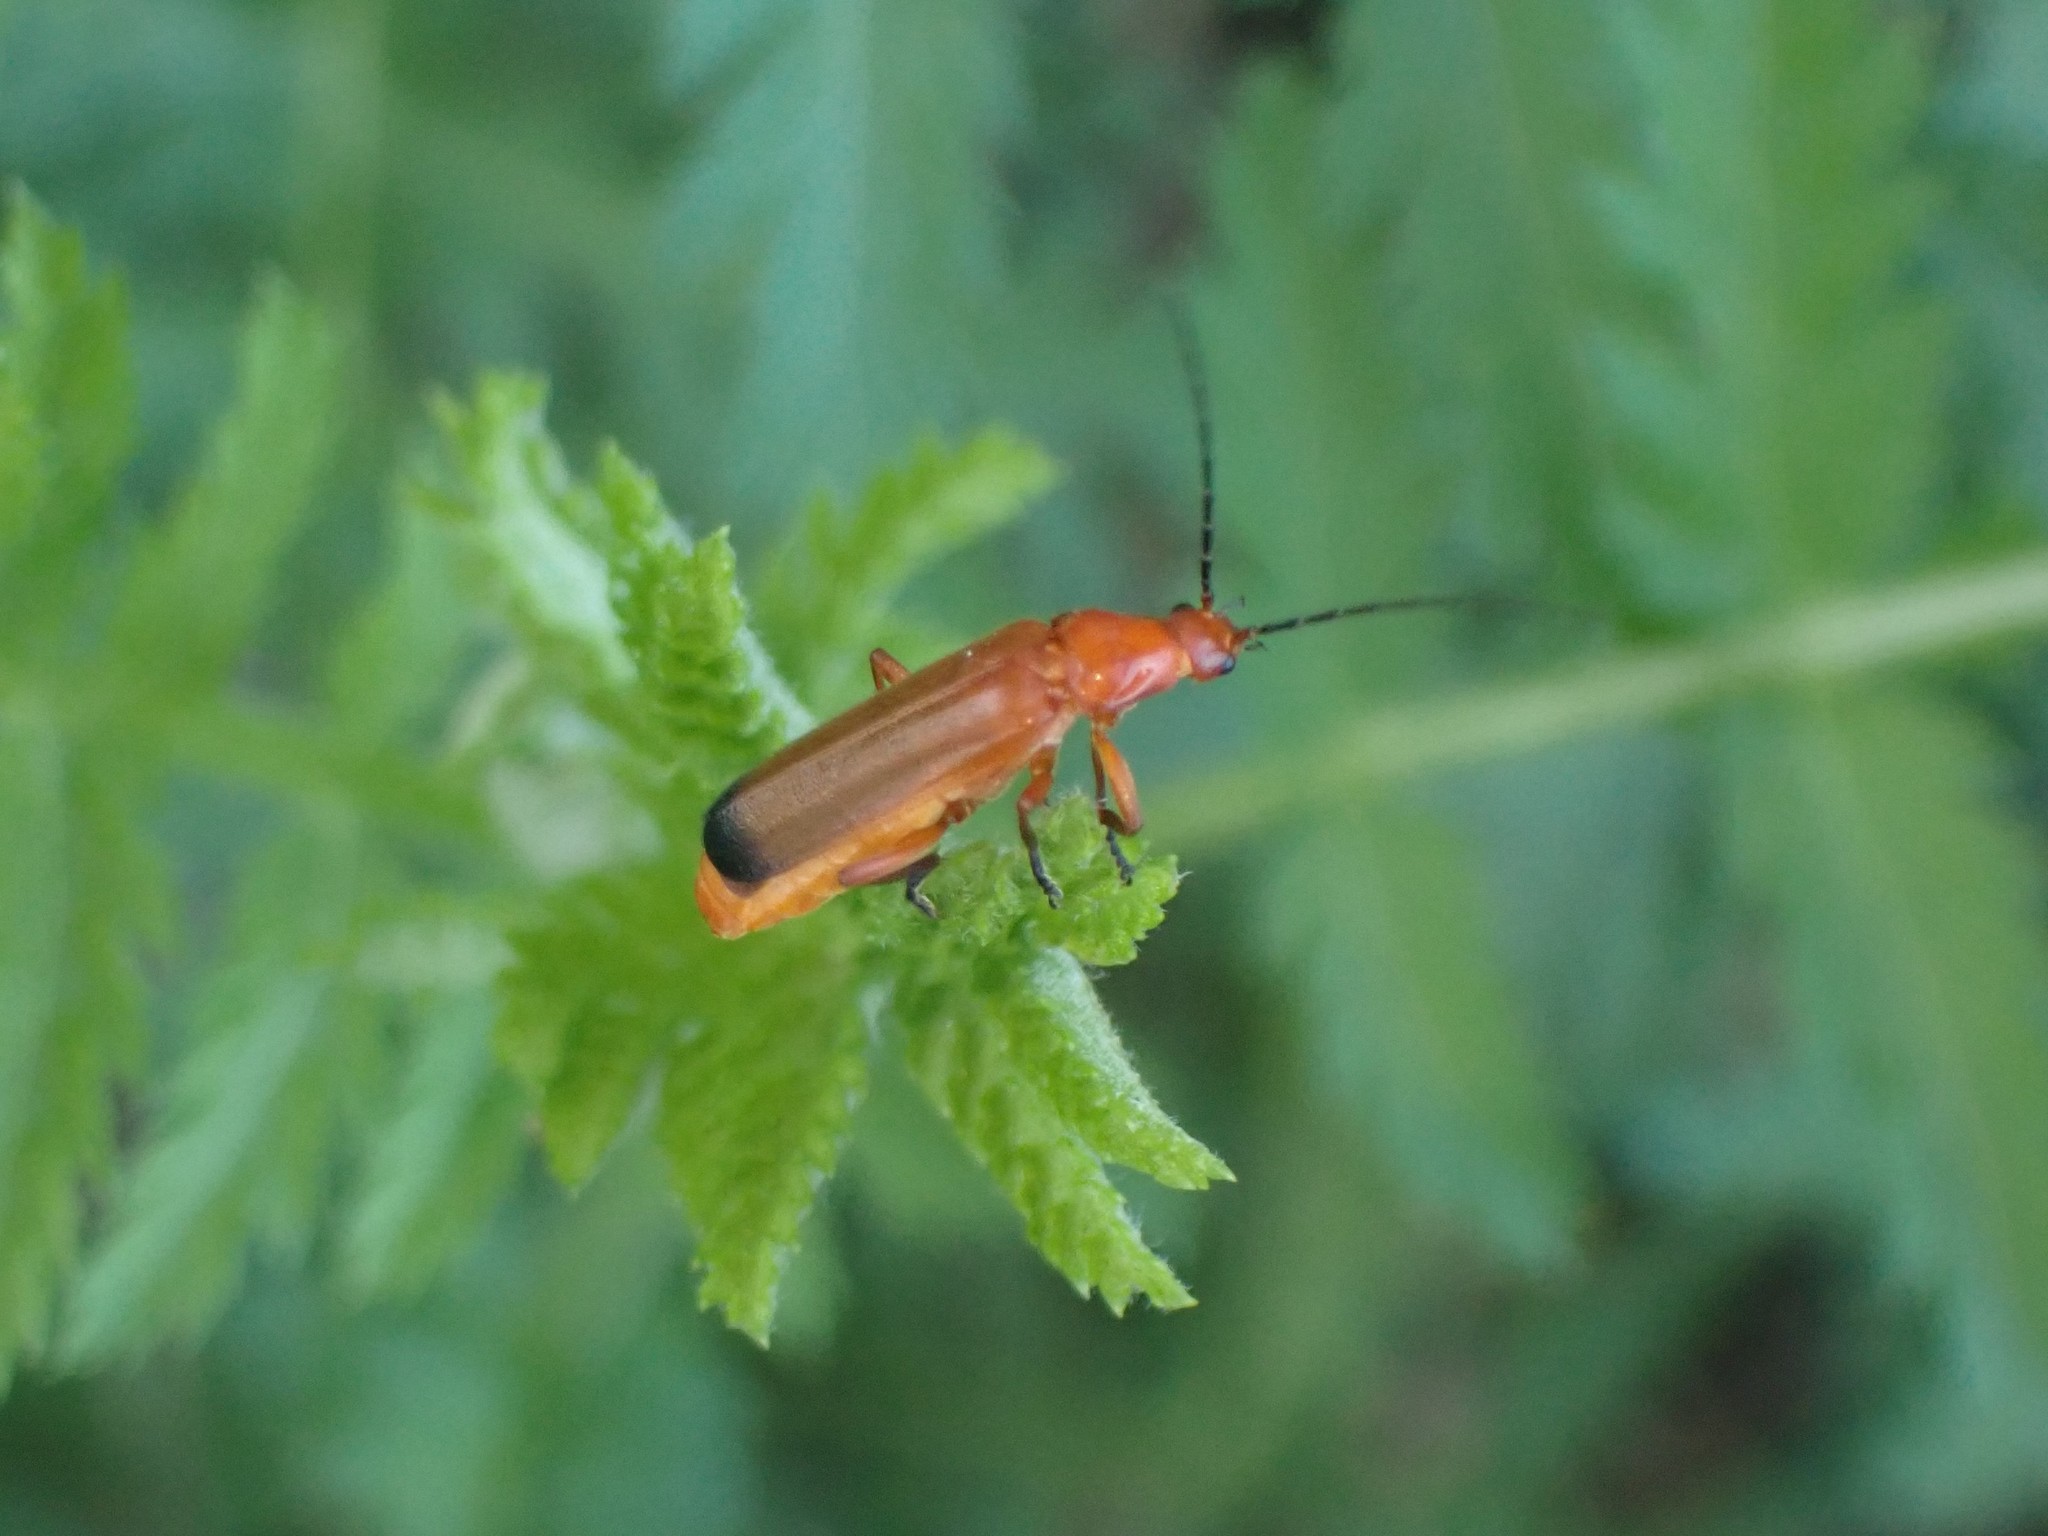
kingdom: Animalia
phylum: Arthropoda
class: Insecta
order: Coleoptera
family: Cantharidae
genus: Rhagonycha
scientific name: Rhagonycha fulva
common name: Common red soldier beetle
